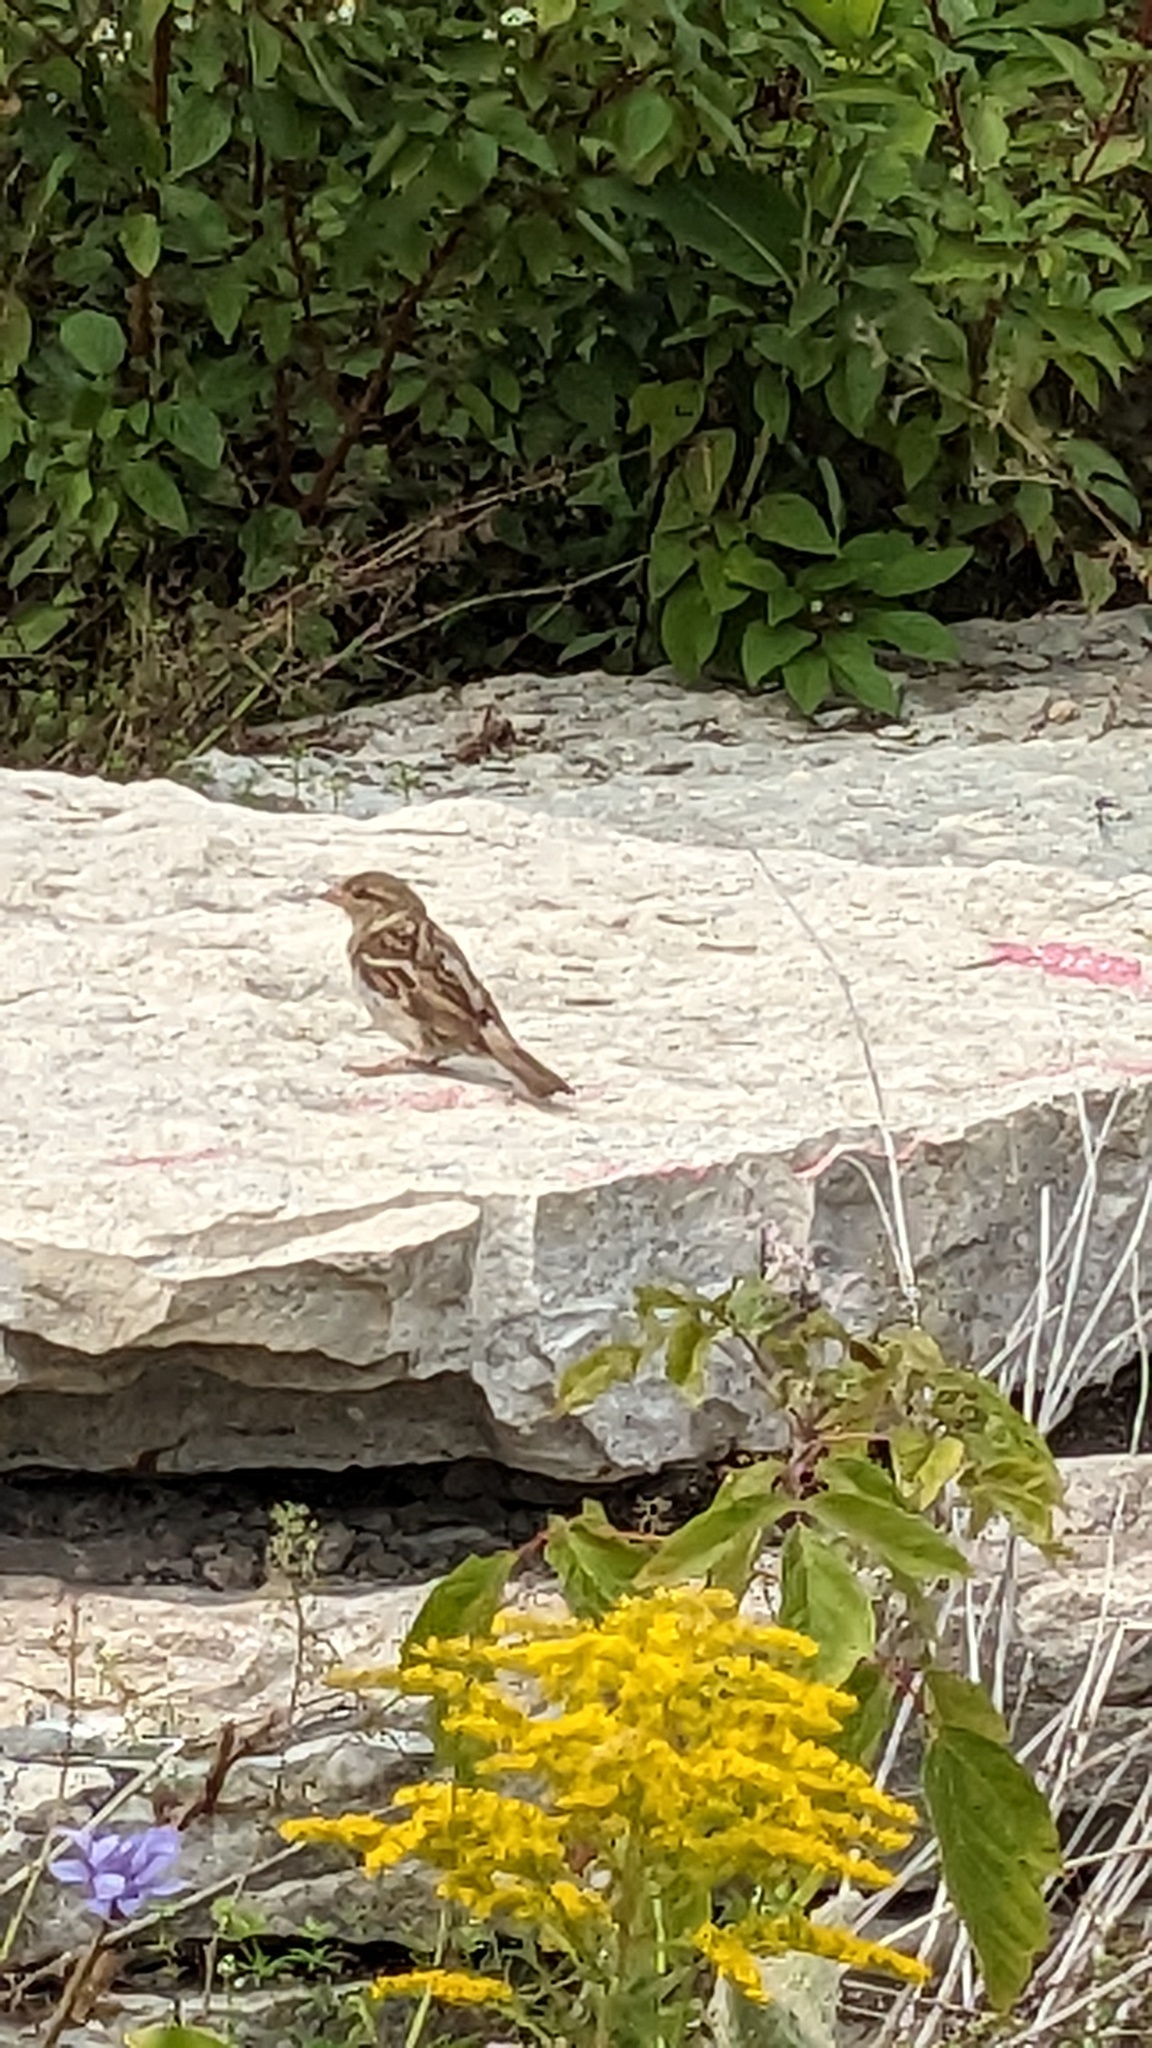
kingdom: Animalia
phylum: Chordata
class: Aves
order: Passeriformes
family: Passeridae
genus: Passer
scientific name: Passer domesticus
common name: House sparrow
